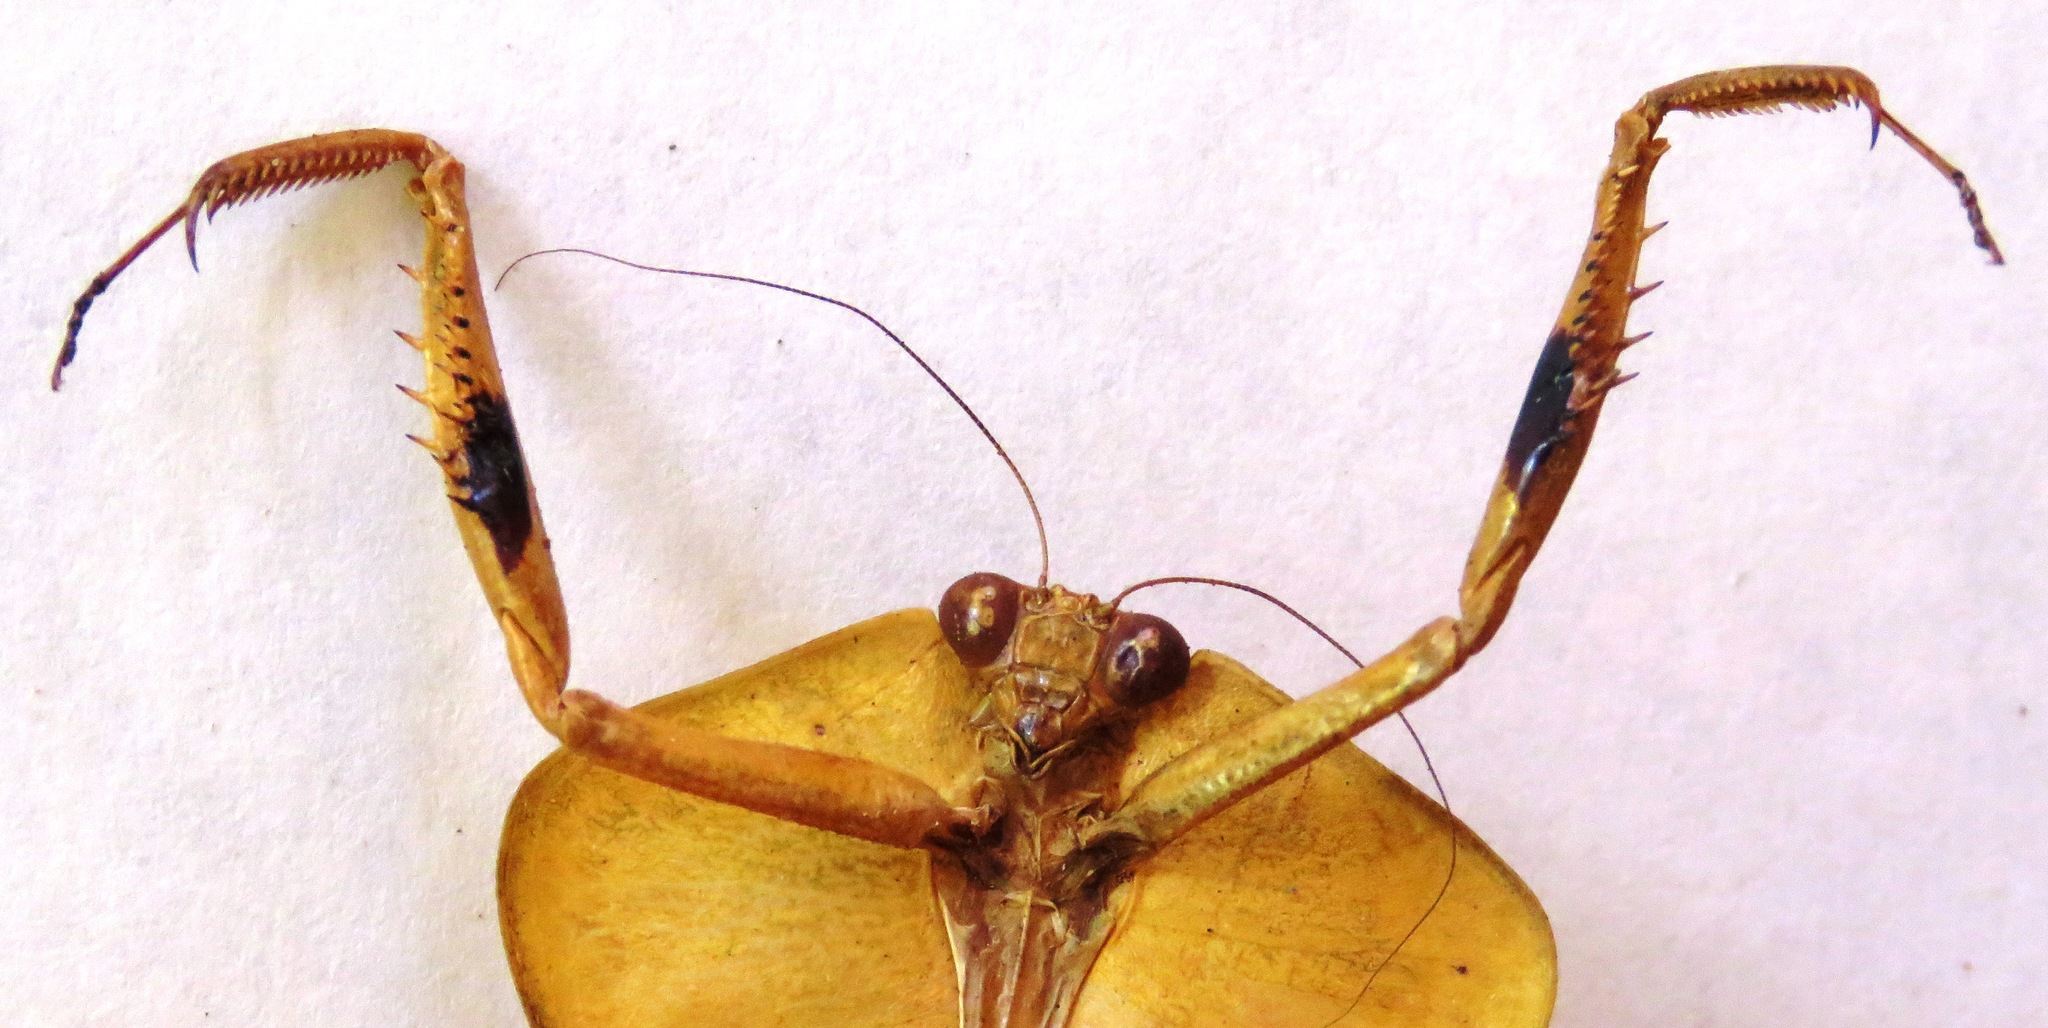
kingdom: Animalia
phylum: Arthropoda
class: Insecta
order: Mantodea
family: Mantidae
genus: Choeradodis
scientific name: Choeradodis rhombicollis
